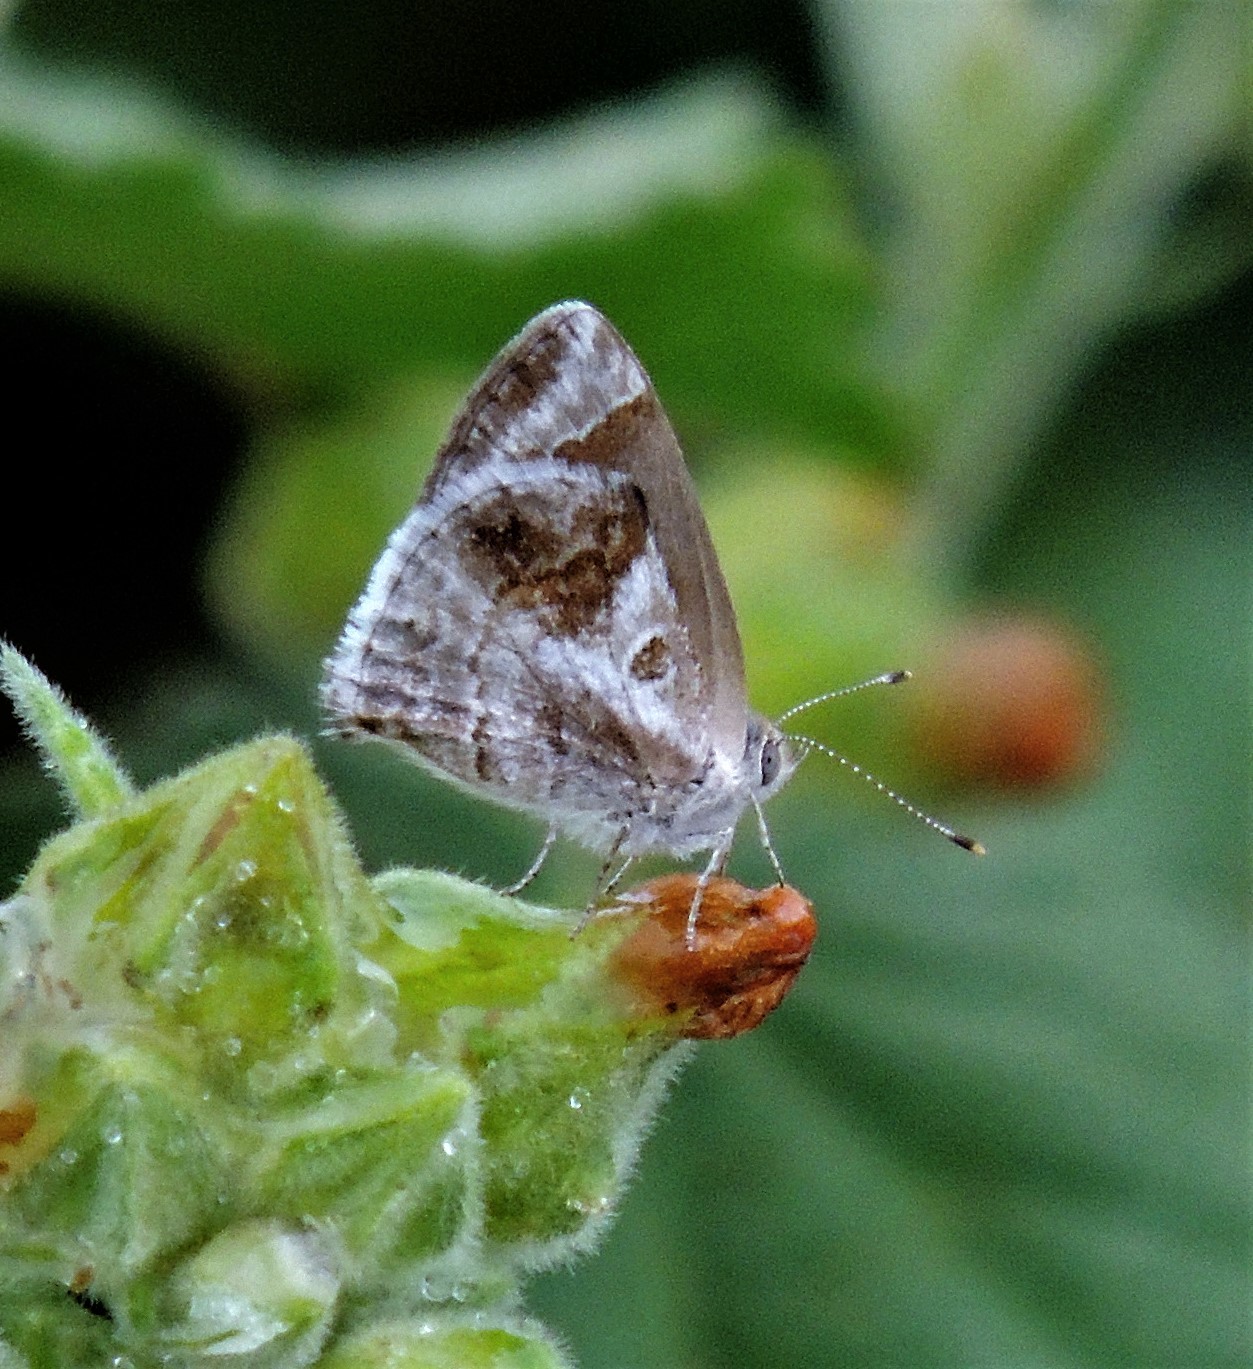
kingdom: Animalia
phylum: Arthropoda
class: Insecta
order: Lepidoptera
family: Lycaenidae
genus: Strymon
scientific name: Strymon bazochii
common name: Lantana scrub-hairstreak
